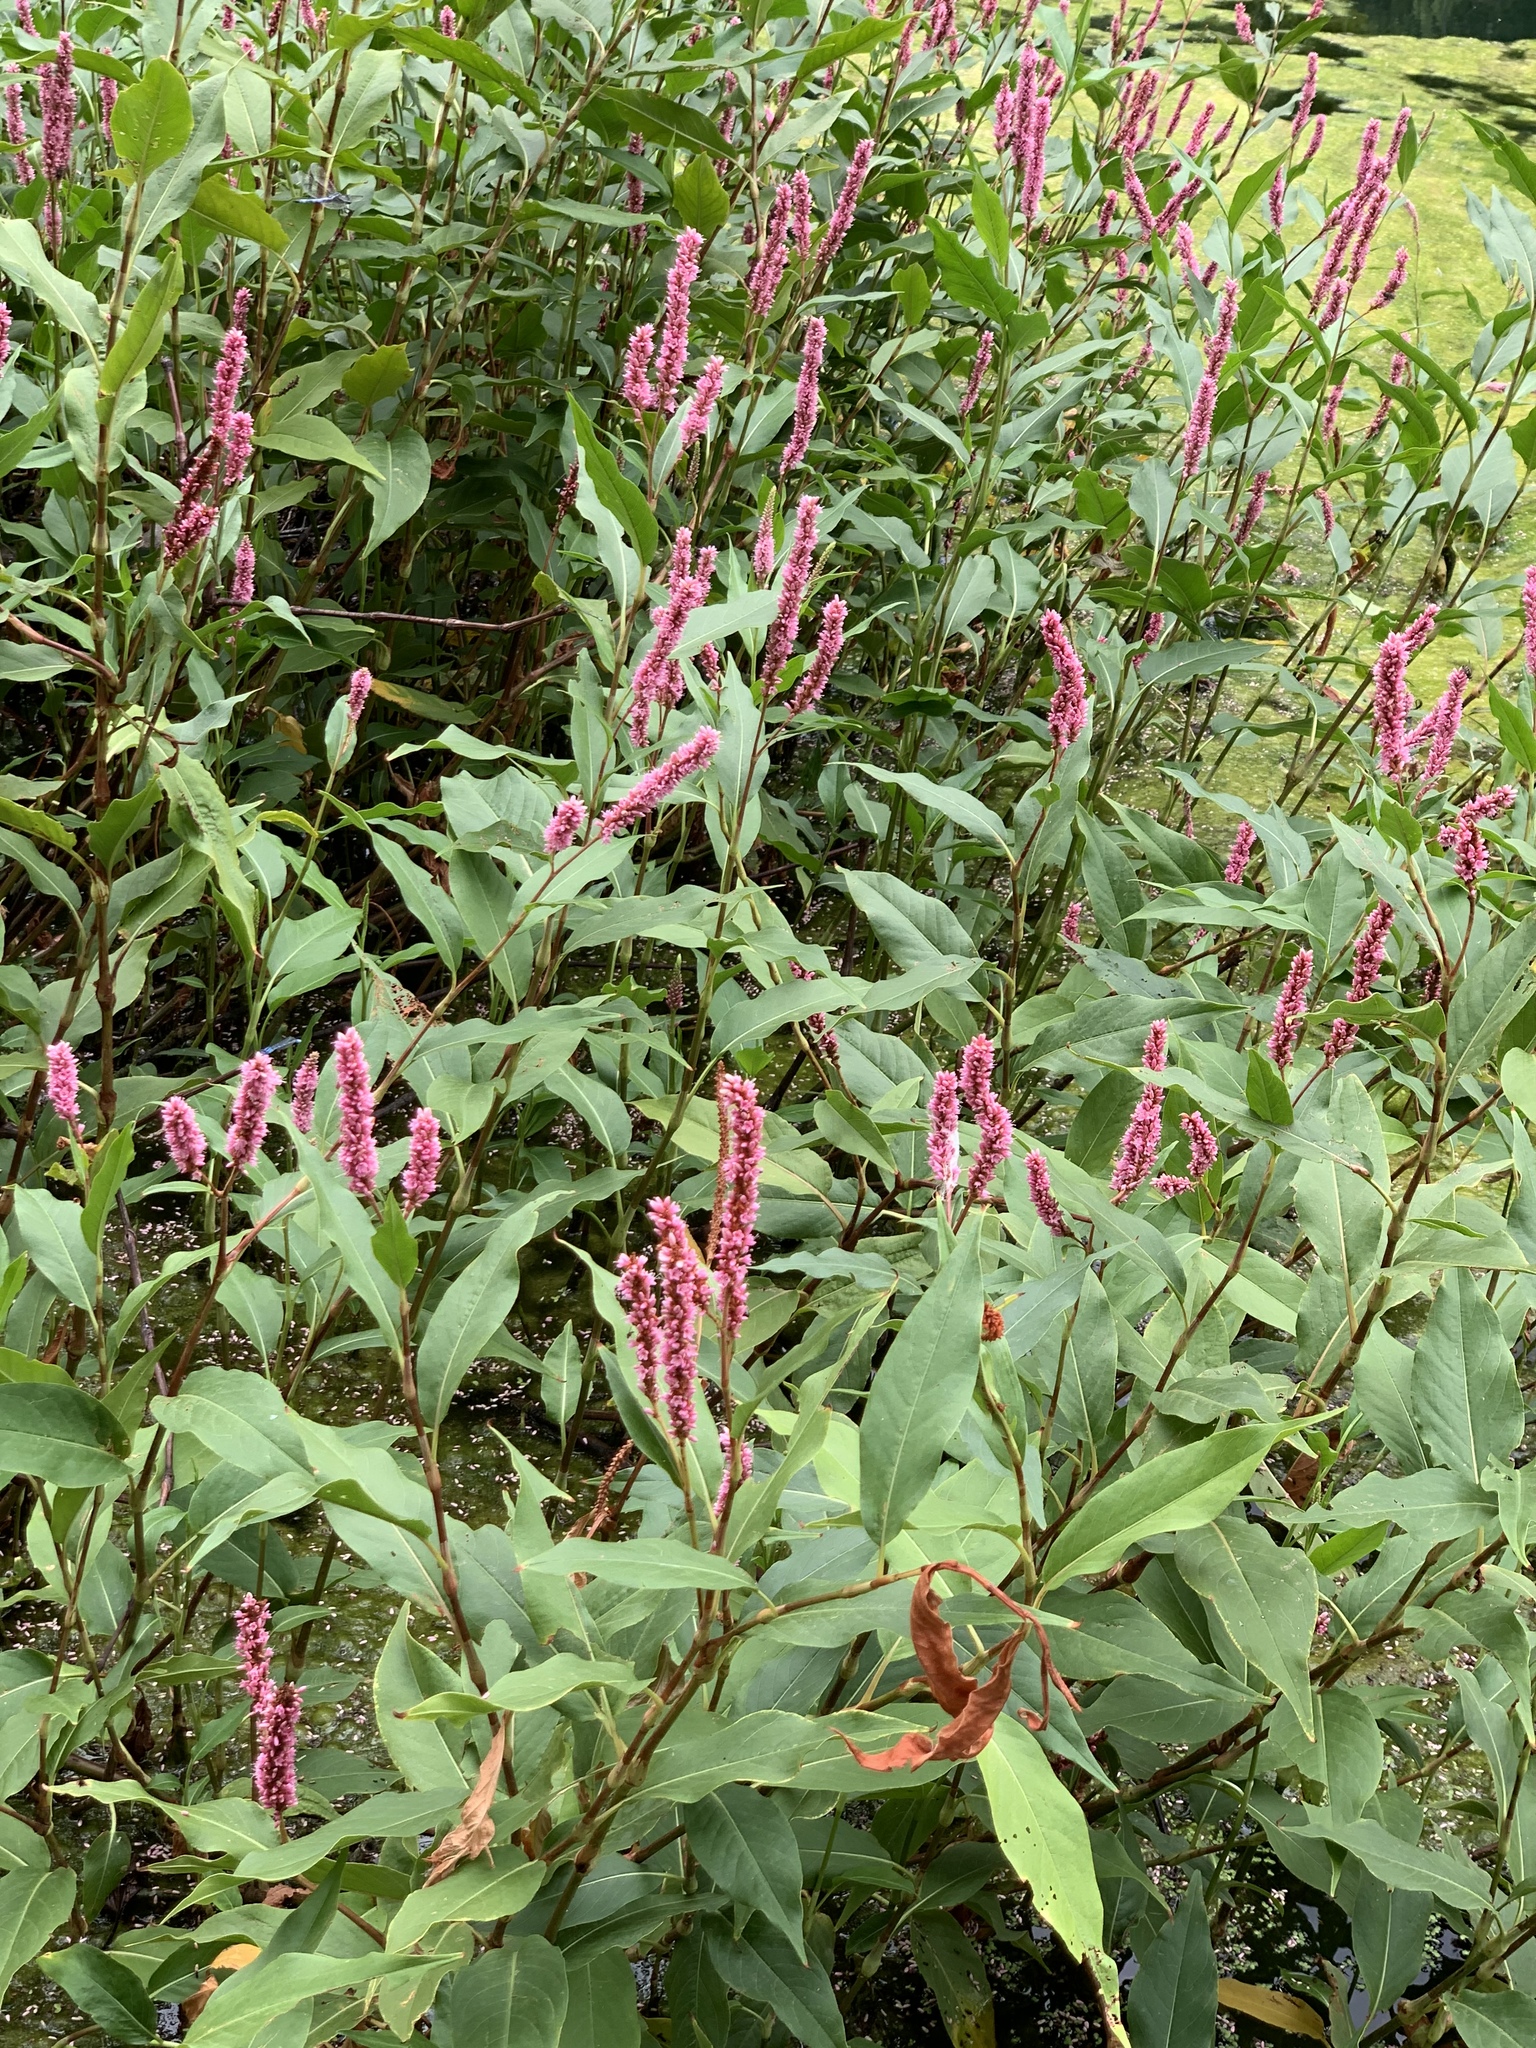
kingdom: Plantae
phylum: Tracheophyta
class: Magnoliopsida
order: Caryophyllales
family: Polygonaceae
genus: Persicaria
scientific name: Persicaria amphibia
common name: Amphibious bistort
